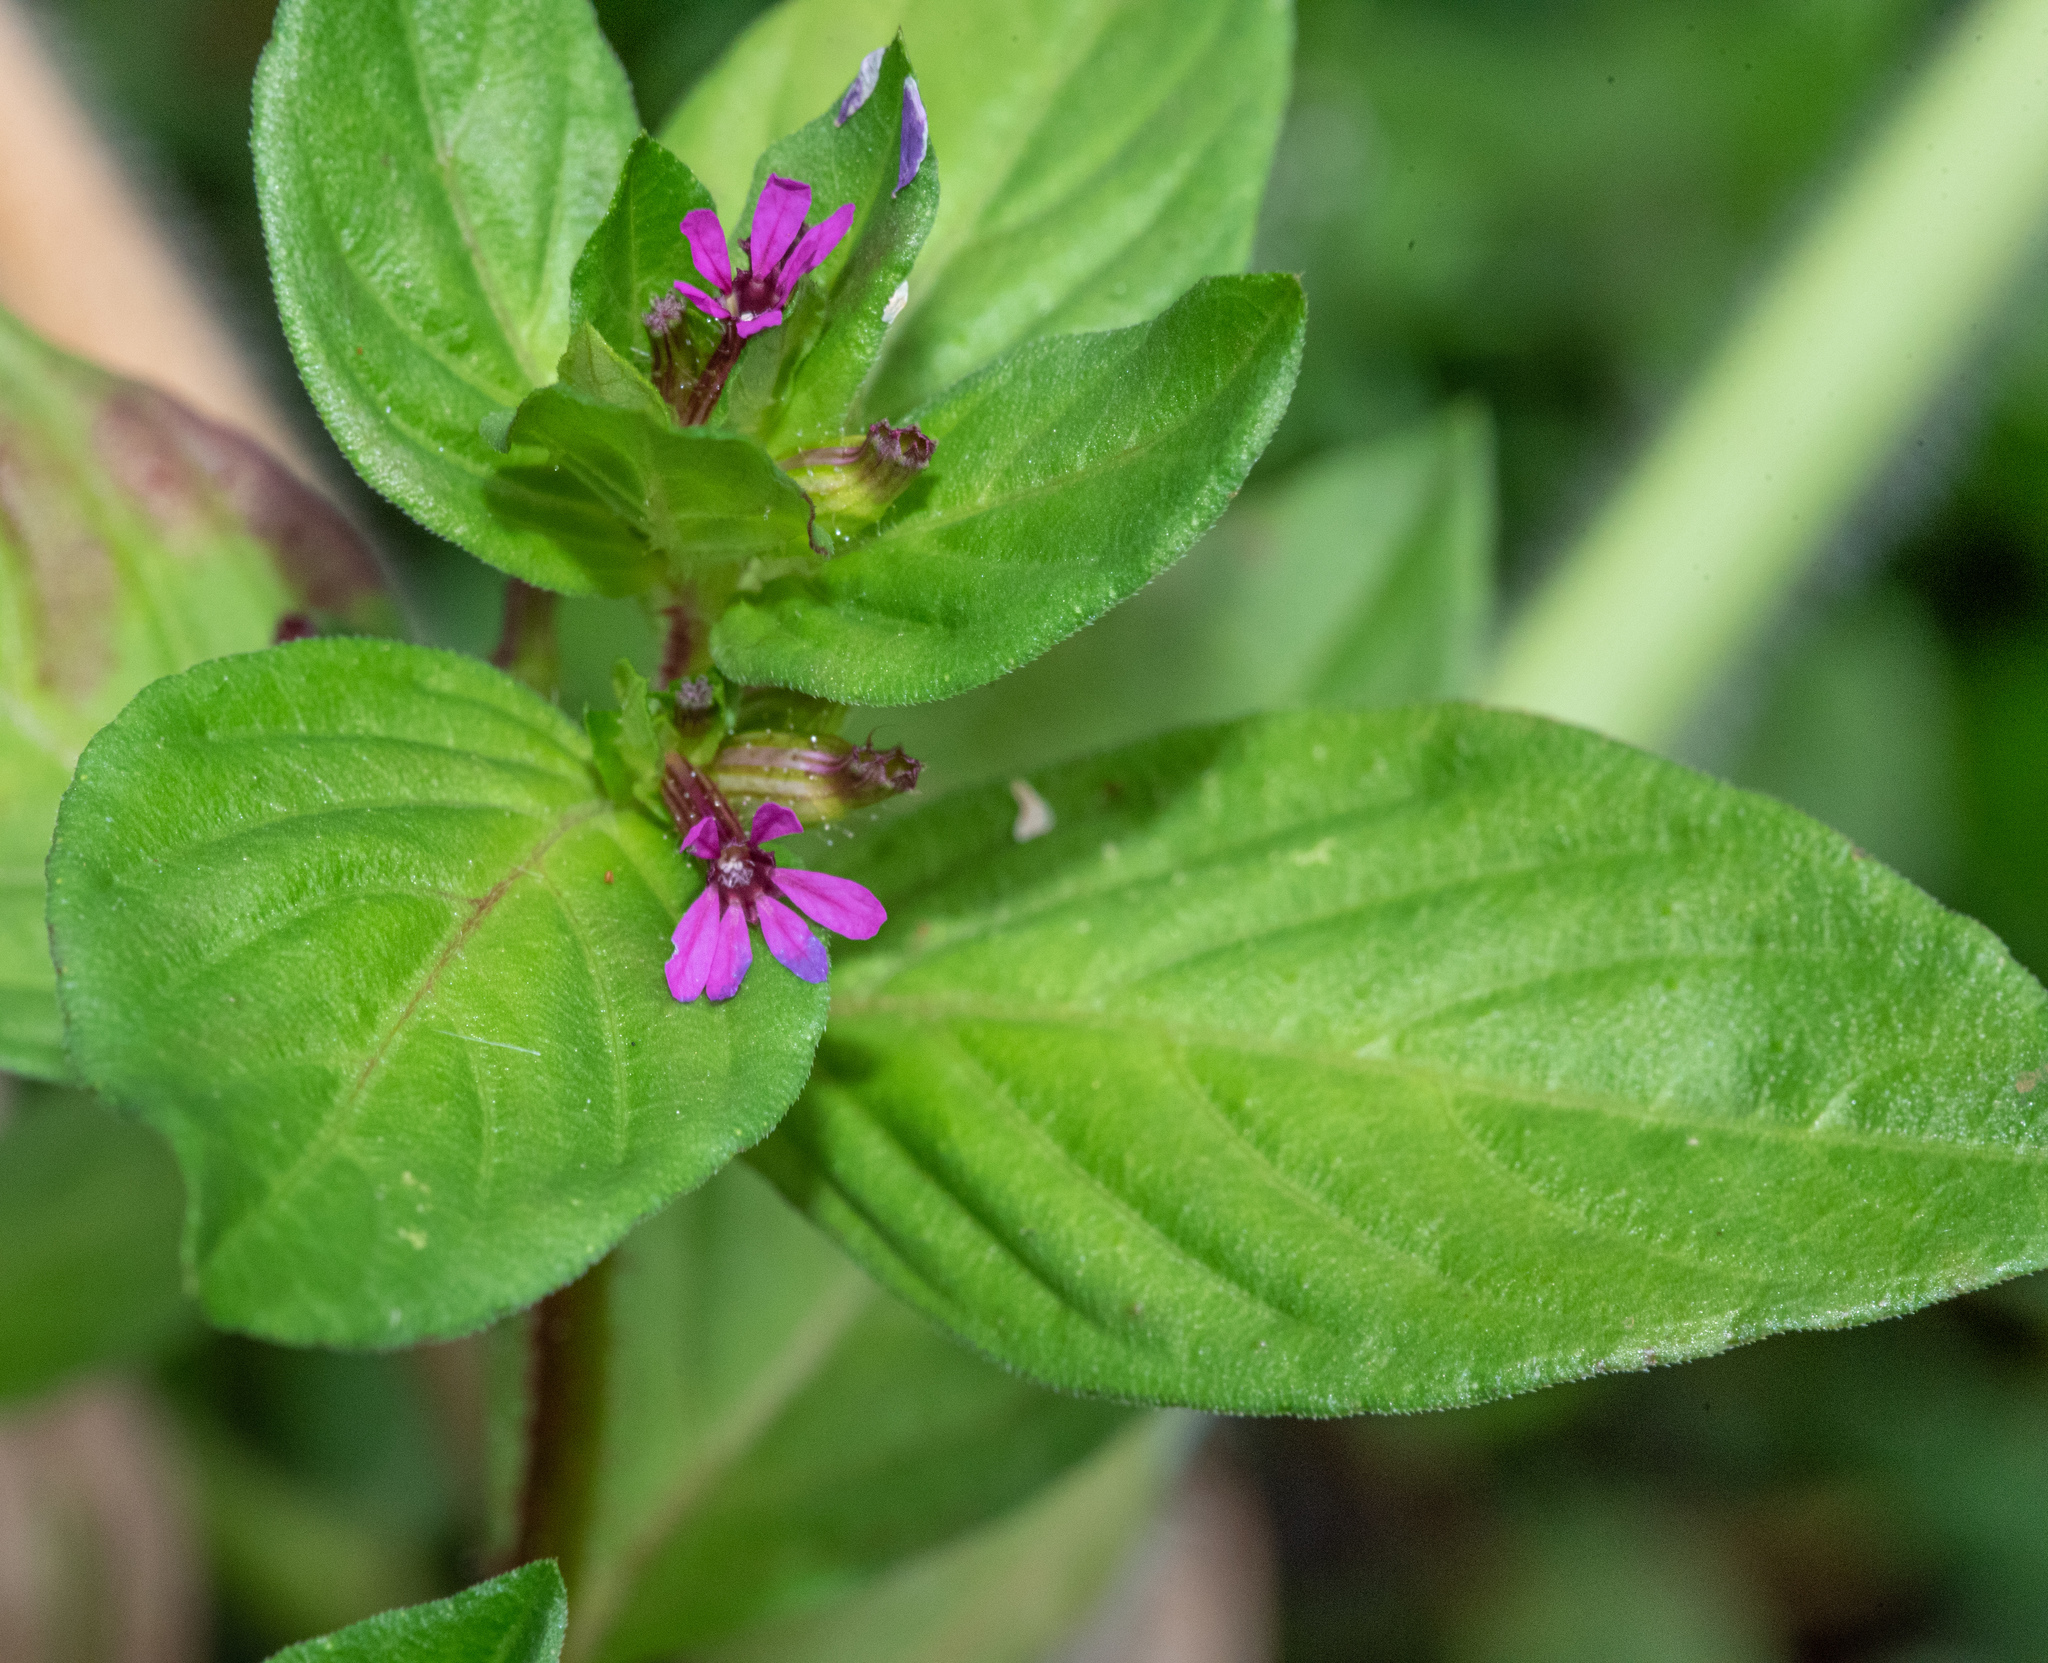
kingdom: Plantae
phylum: Tracheophyta
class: Magnoliopsida
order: Myrtales
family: Lythraceae
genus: Cuphea
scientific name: Cuphea carthagenensis
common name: Colombian waxweed
